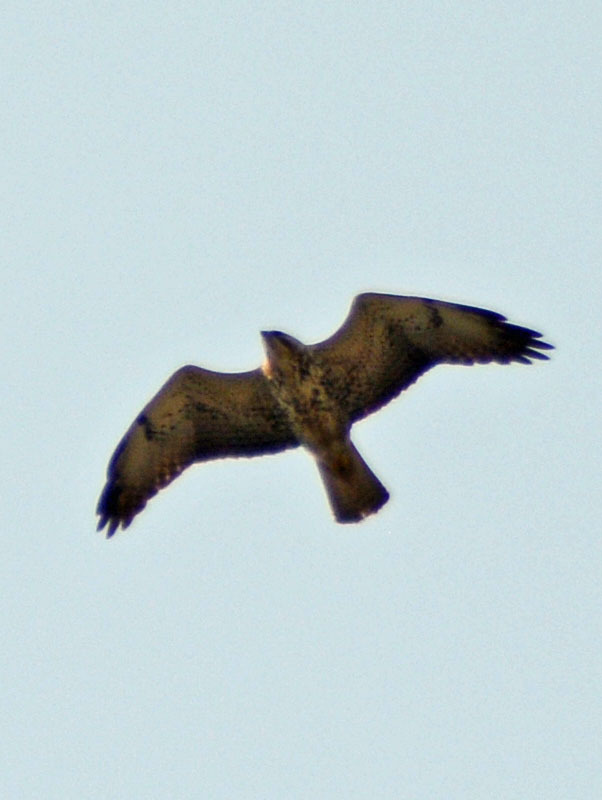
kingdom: Animalia
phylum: Chordata
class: Aves
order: Accipitriformes
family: Accipitridae
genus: Buteo
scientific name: Buteo swainsoni
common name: Swainson's hawk
